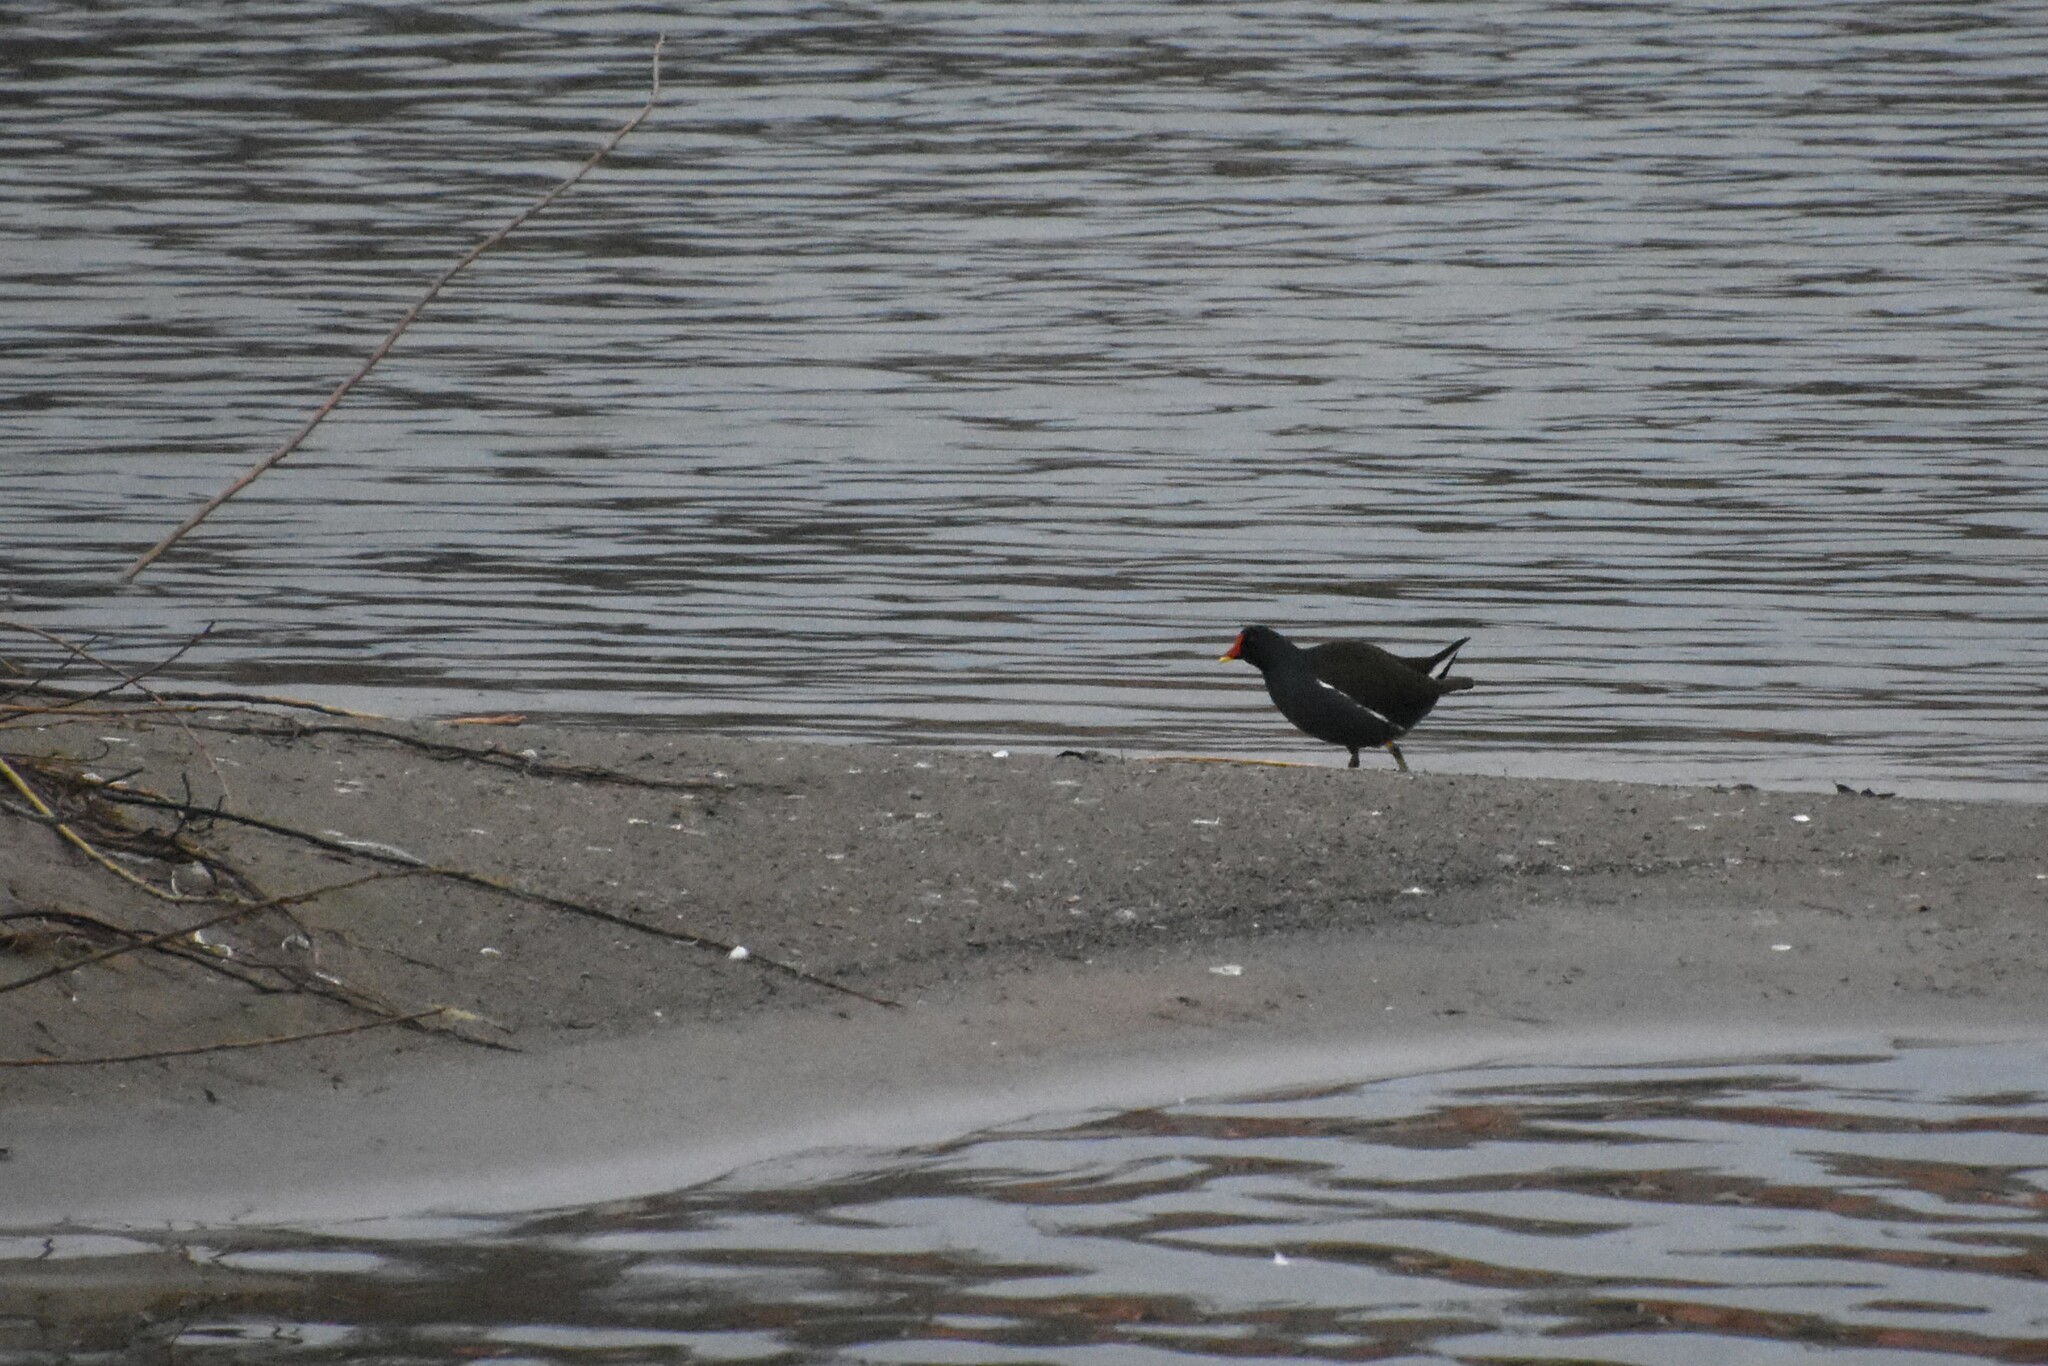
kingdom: Animalia
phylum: Chordata
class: Aves
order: Gruiformes
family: Rallidae
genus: Gallinula
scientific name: Gallinula chloropus
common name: Common moorhen
